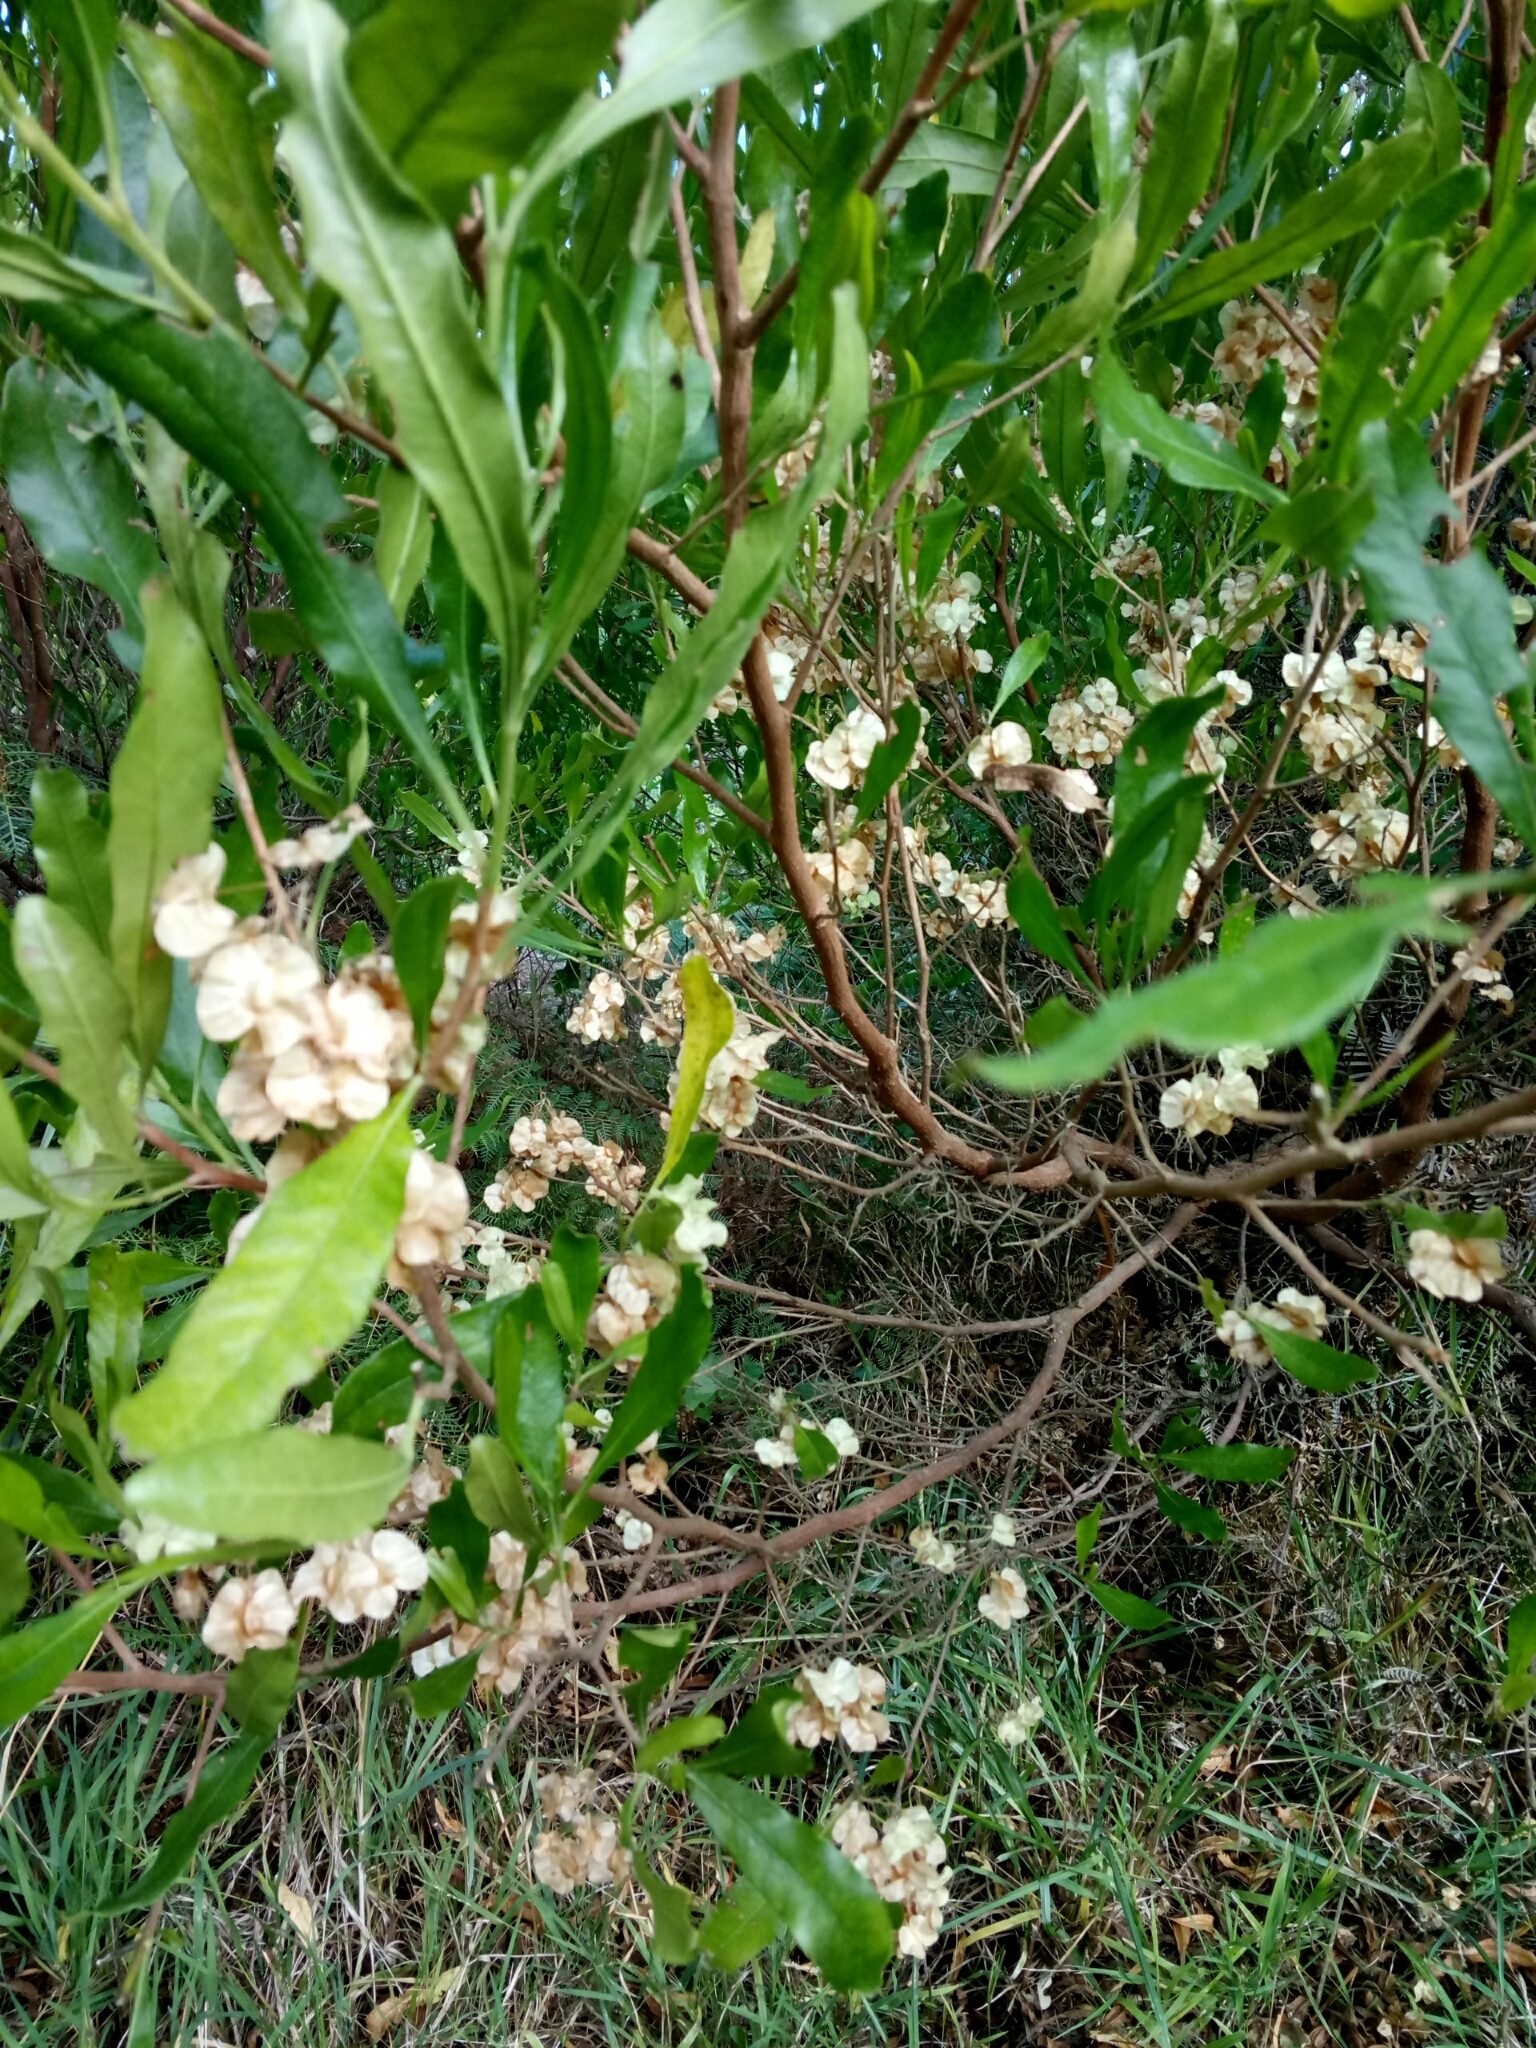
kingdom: Plantae
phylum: Tracheophyta
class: Magnoliopsida
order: Sapindales
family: Sapindaceae
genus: Dodonaea
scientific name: Dodonaea viscosa
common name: Hopbush
